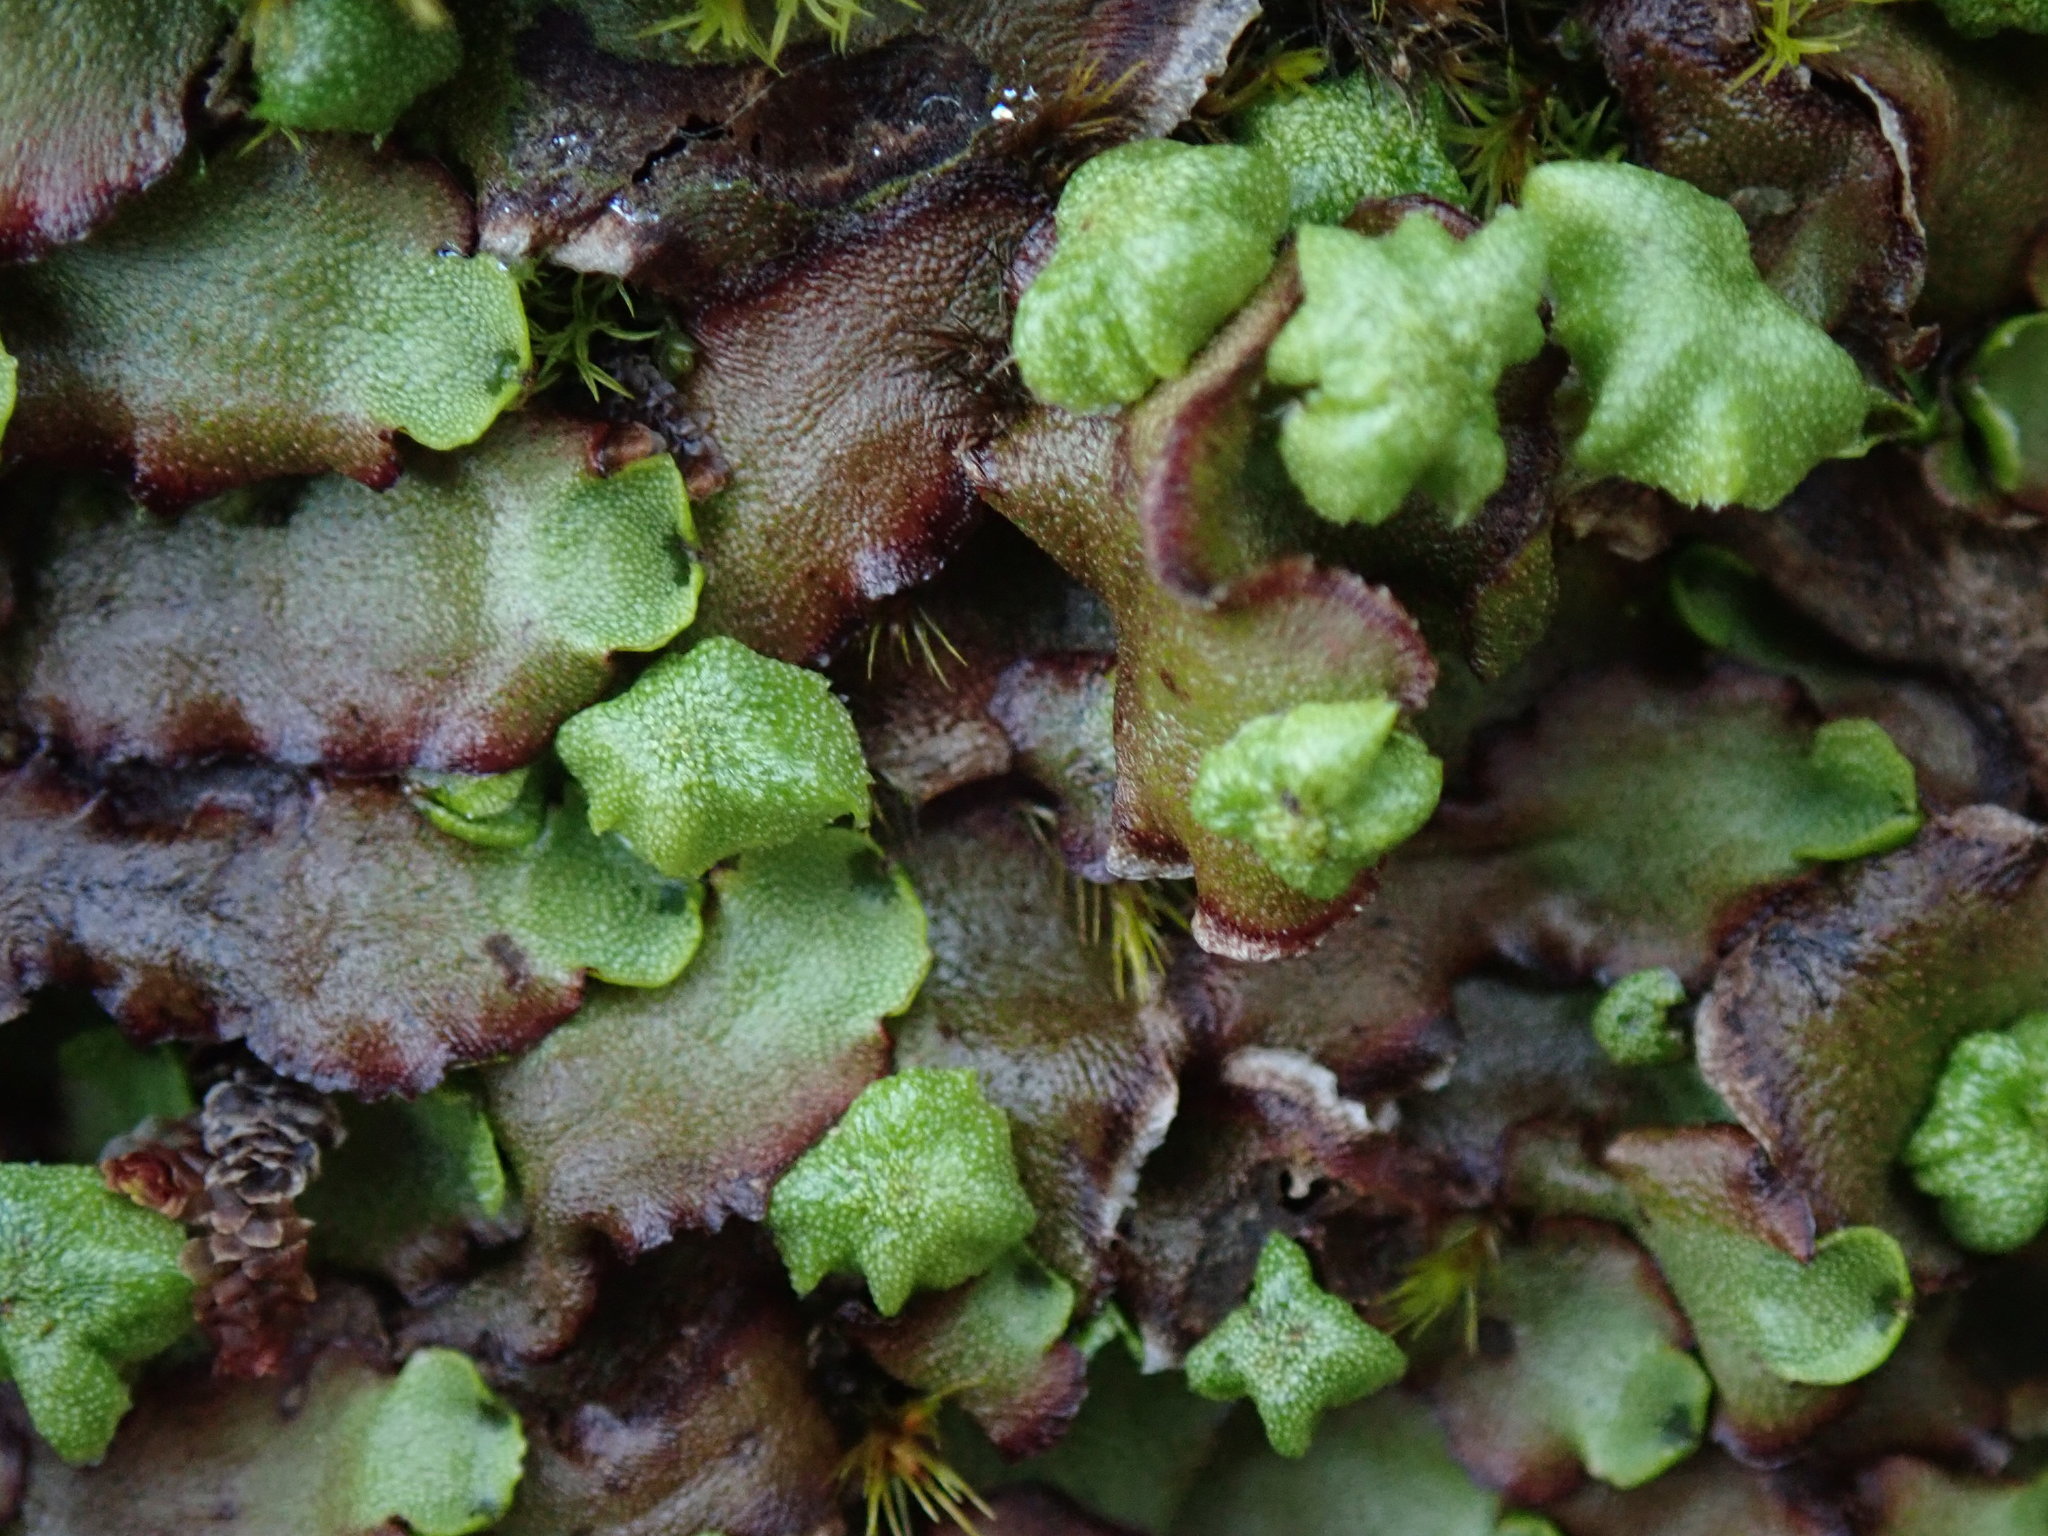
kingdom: Plantae
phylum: Marchantiophyta
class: Marchantiopsida
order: Marchantiales
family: Marchantiaceae
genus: Marchantia
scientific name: Marchantia quadrata
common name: Narrow mushroom-headed liverwort
